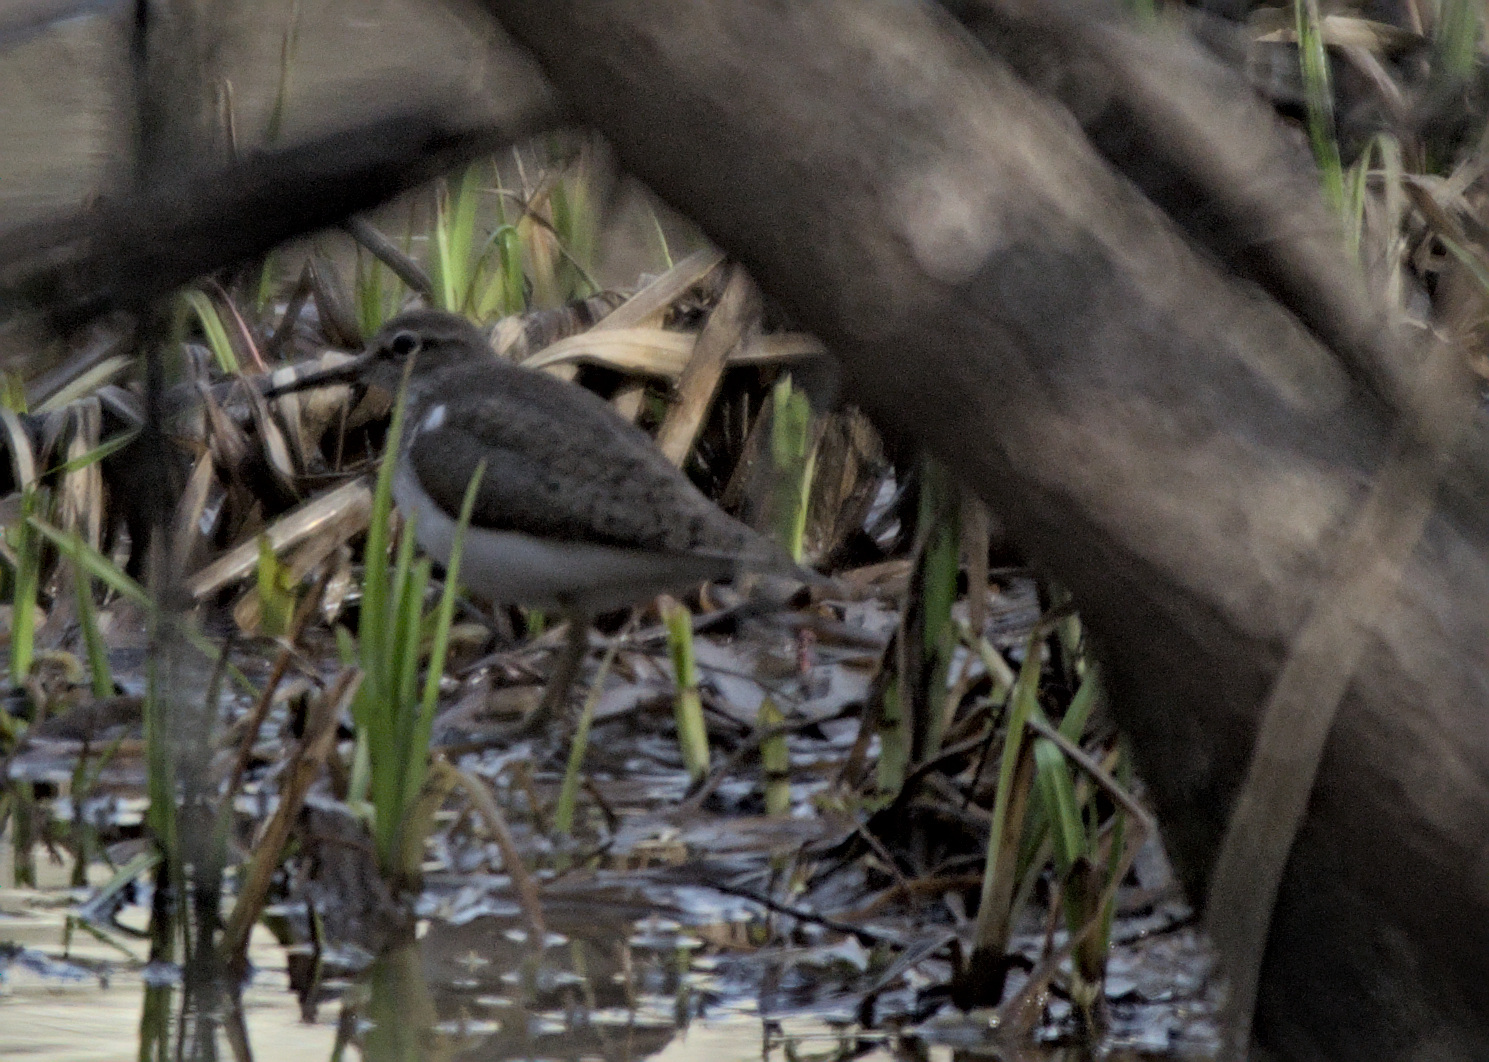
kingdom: Animalia
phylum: Chordata
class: Aves
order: Charadriiformes
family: Scolopacidae
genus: Actitis
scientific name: Actitis hypoleucos
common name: Common sandpiper
